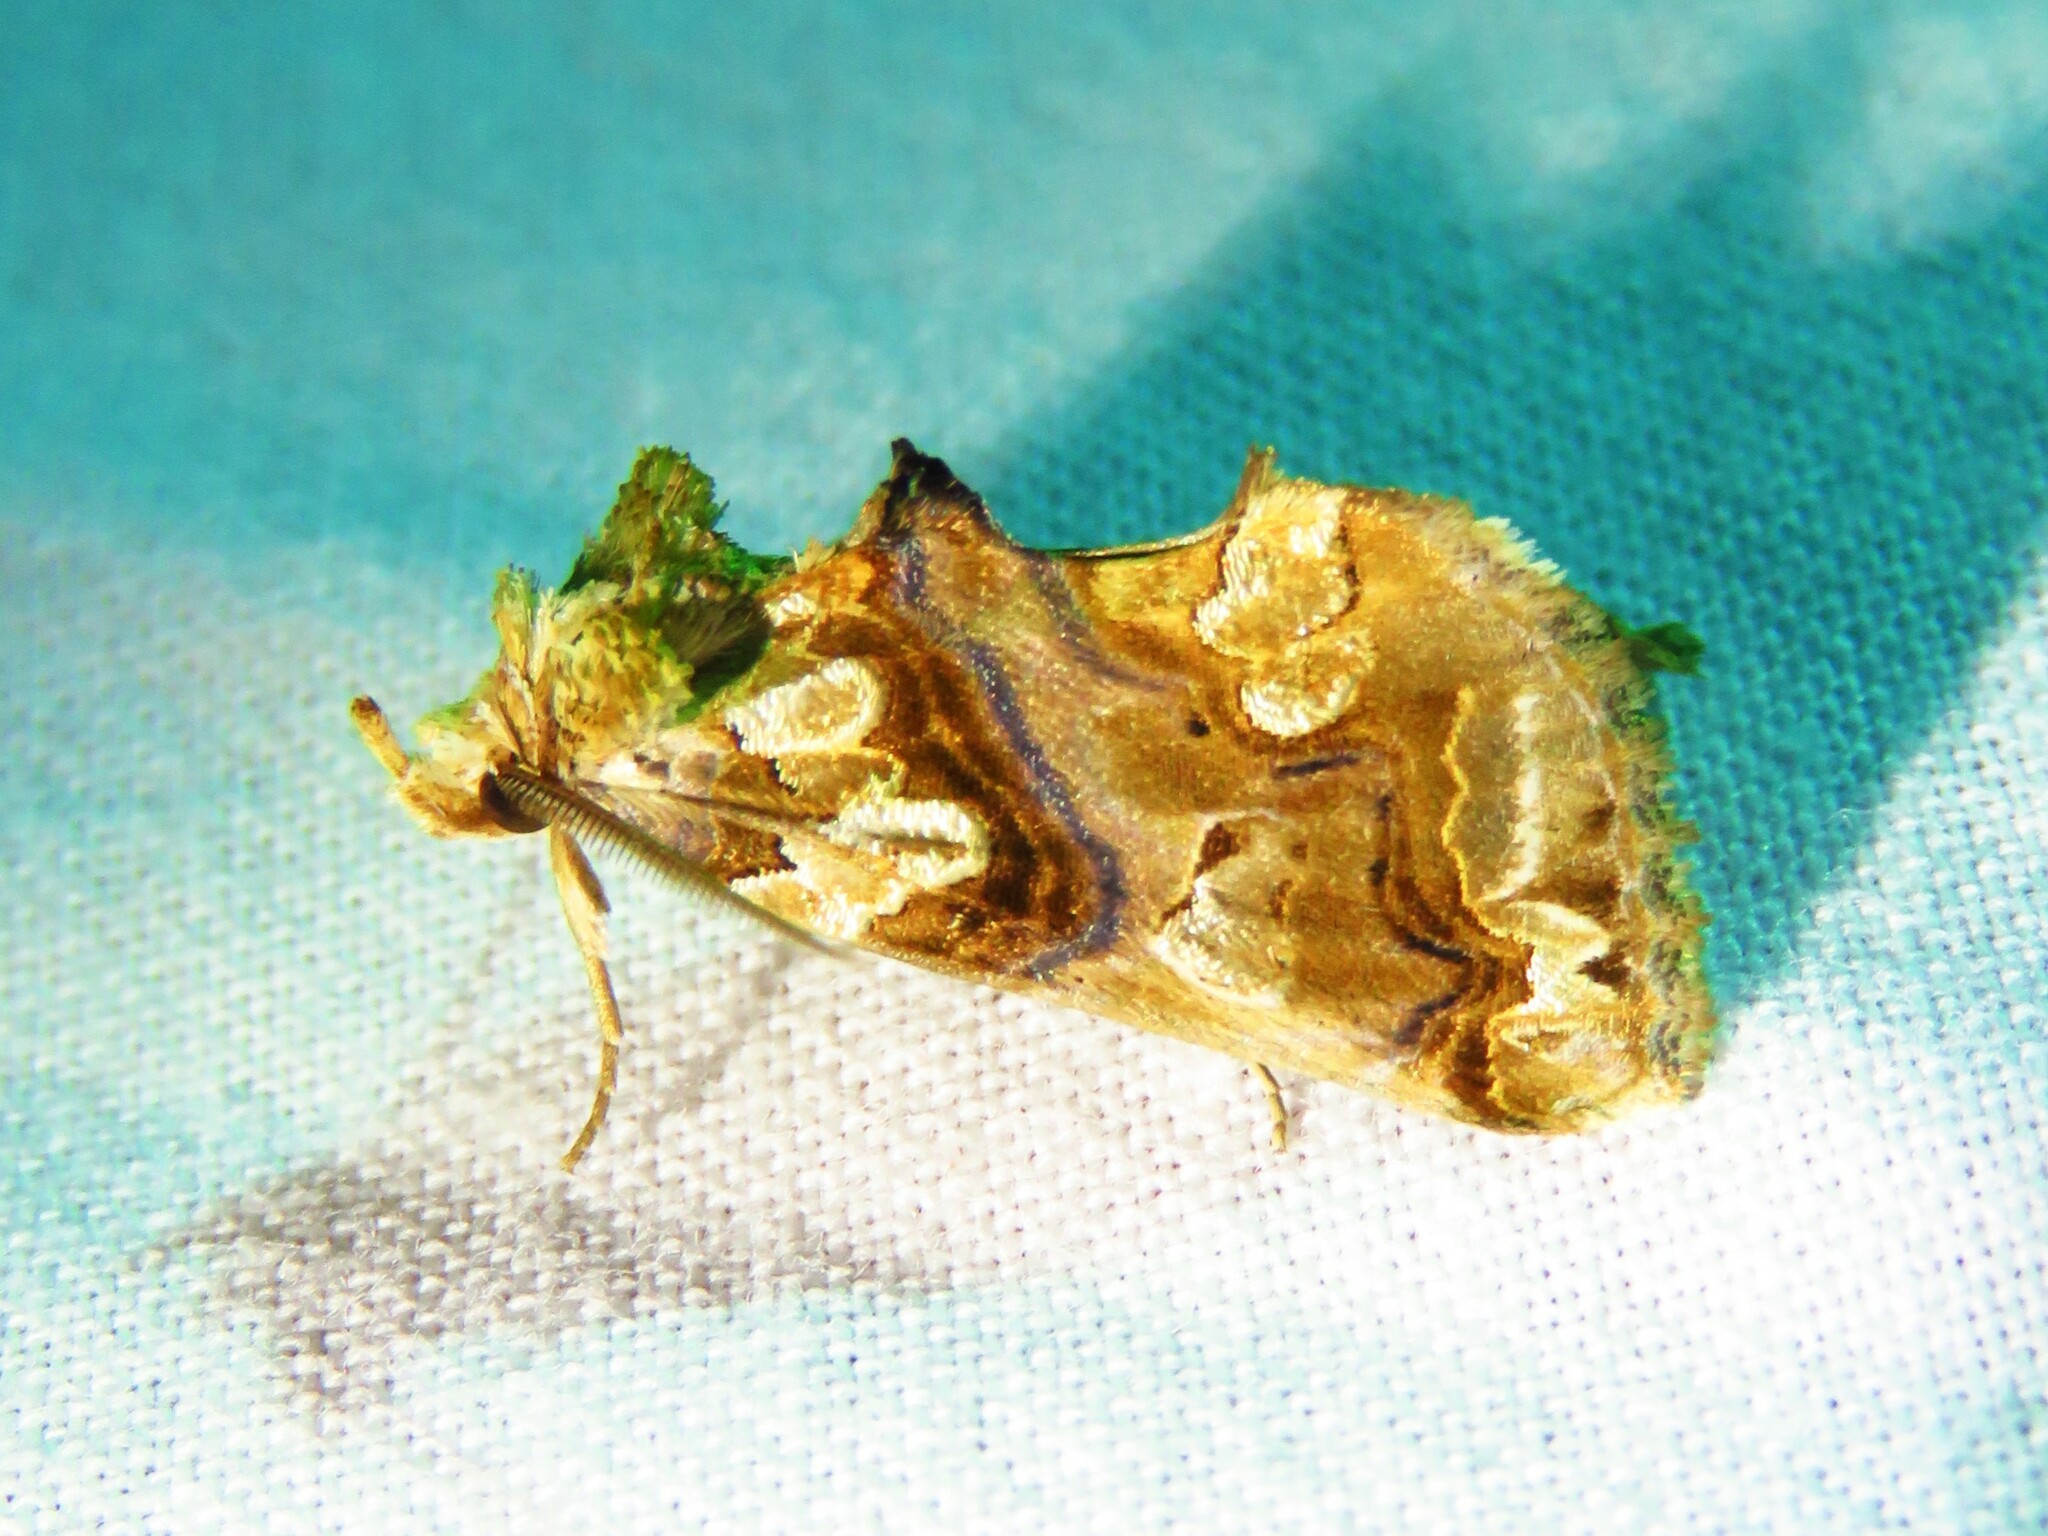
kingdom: Animalia
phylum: Arthropoda
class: Insecta
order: Lepidoptera
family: Erebidae
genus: Plusiodonta
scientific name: Plusiodonta compressipalpis
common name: Moonseed moth
